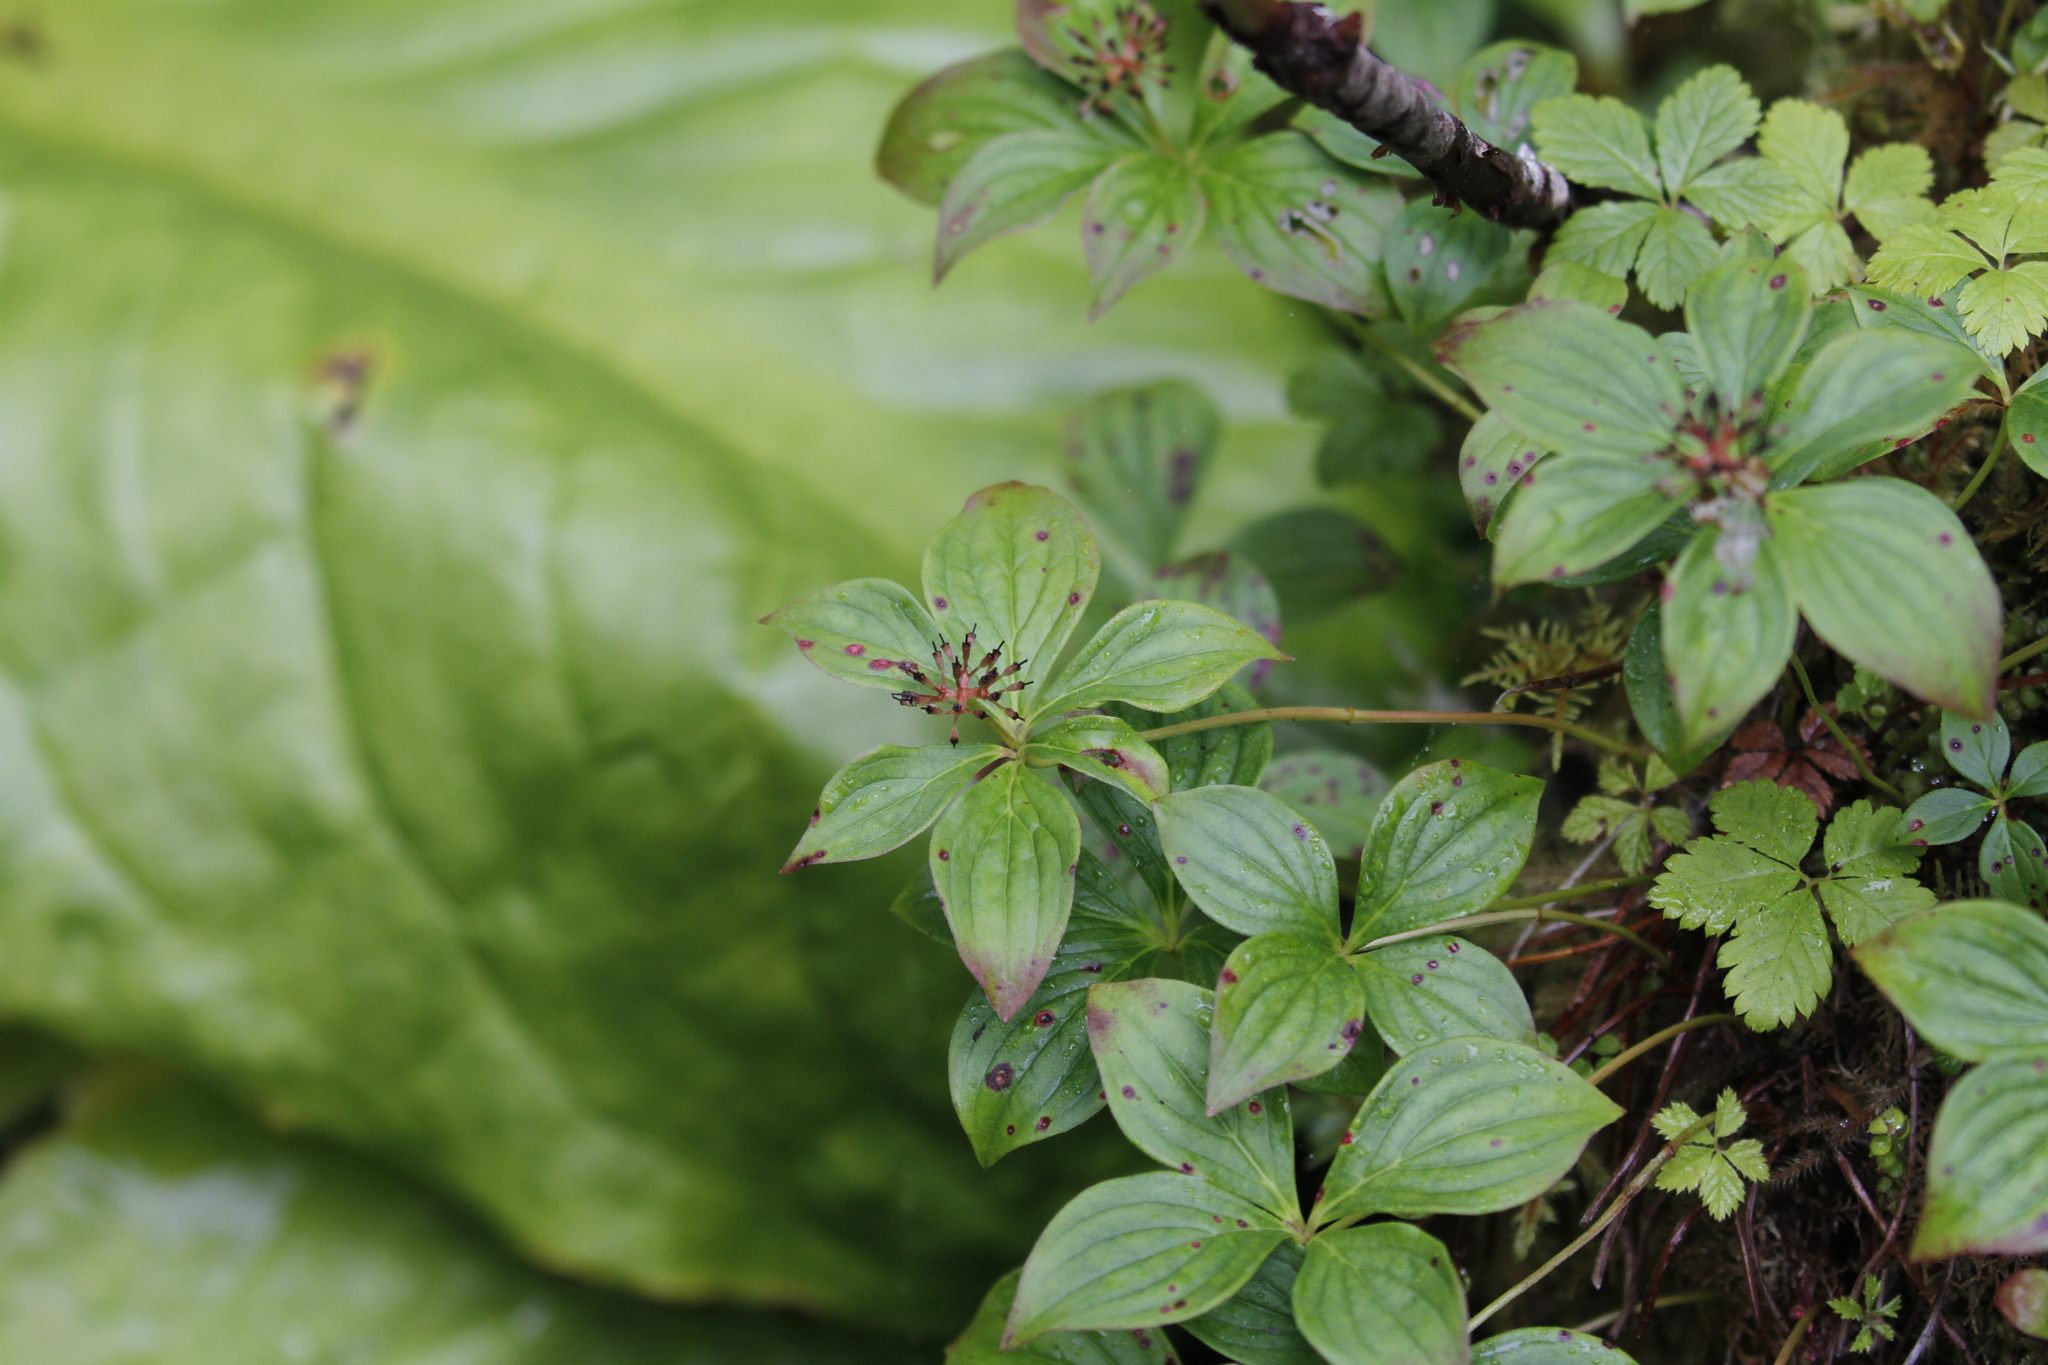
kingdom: Plantae
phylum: Tracheophyta
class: Magnoliopsida
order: Cornales
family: Cornaceae
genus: Cornus
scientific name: Cornus unalaschkensis
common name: Alaska bunchberry
